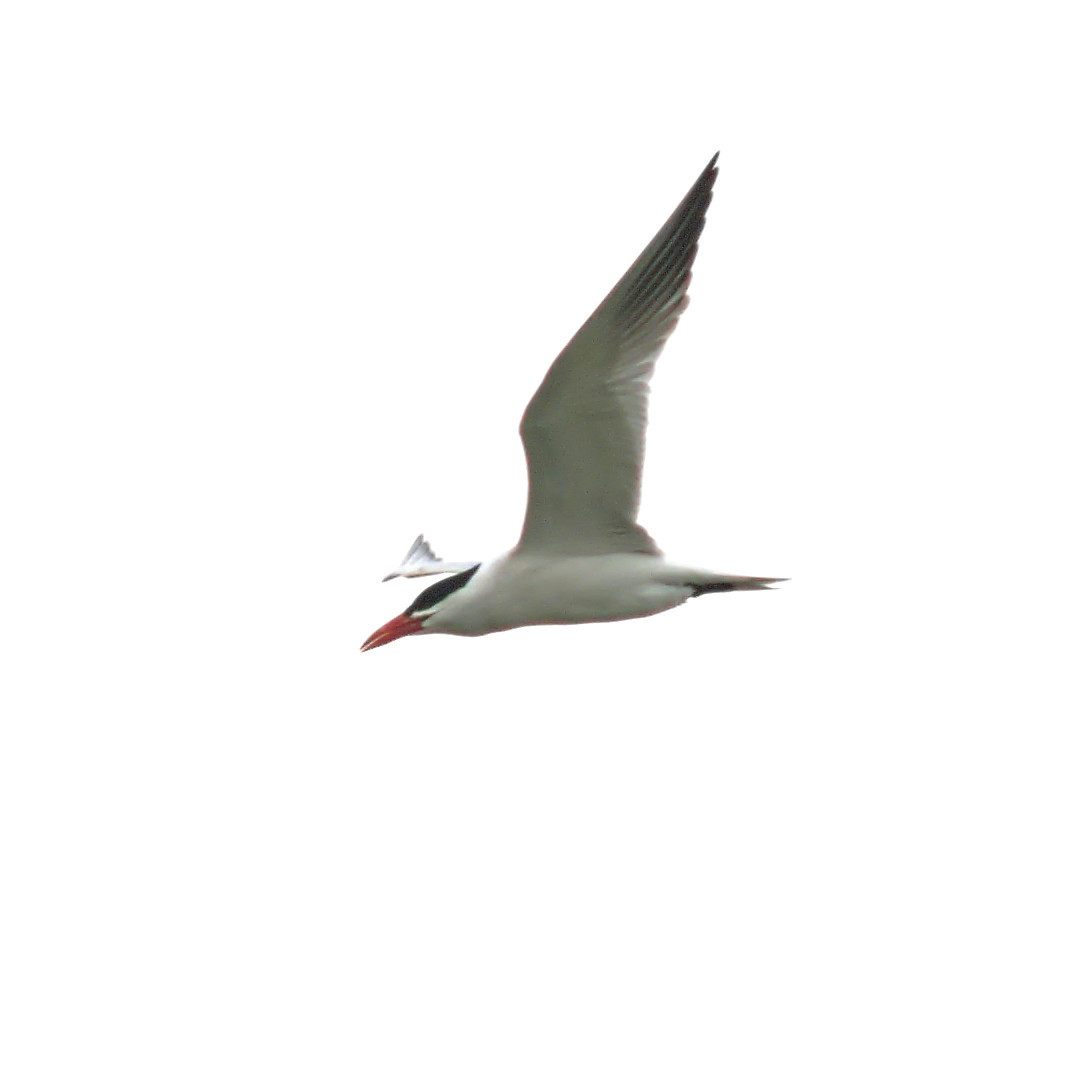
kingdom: Animalia
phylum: Chordata
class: Aves
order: Charadriiformes
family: Laridae
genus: Hydroprogne
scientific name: Hydroprogne caspia
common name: Caspian tern
